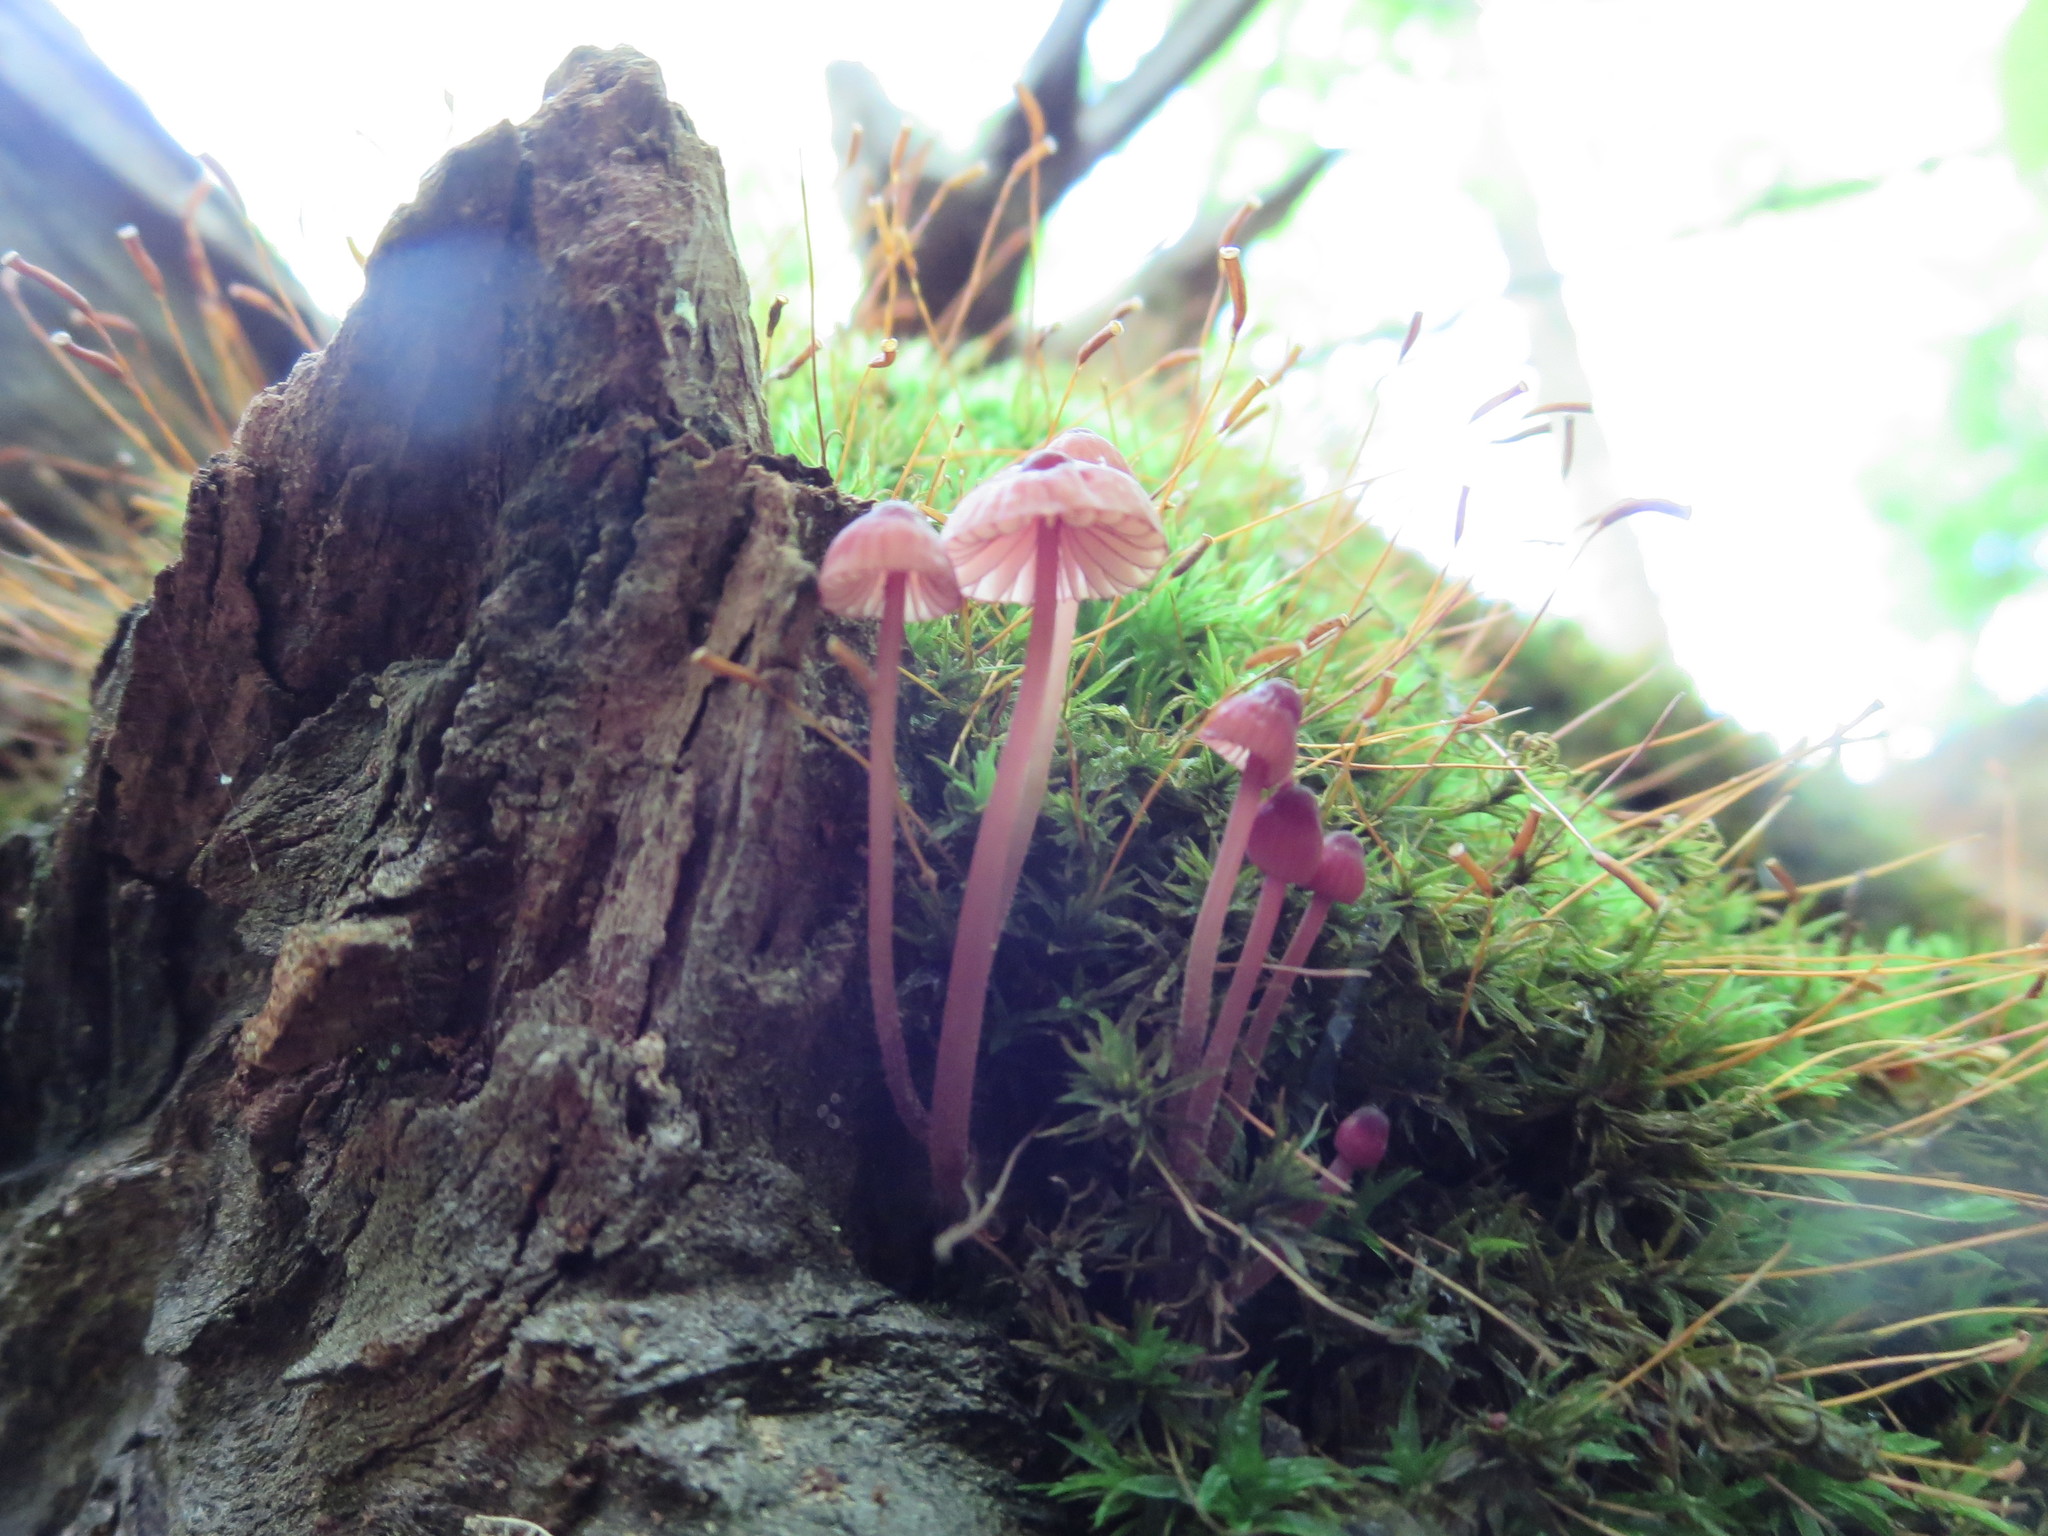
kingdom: Fungi
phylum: Basidiomycota
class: Agaricomycetes
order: Agaricales
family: Mycenaceae
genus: Mycena
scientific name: Mycena sanguinolenta
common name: Bleeding bonnet
